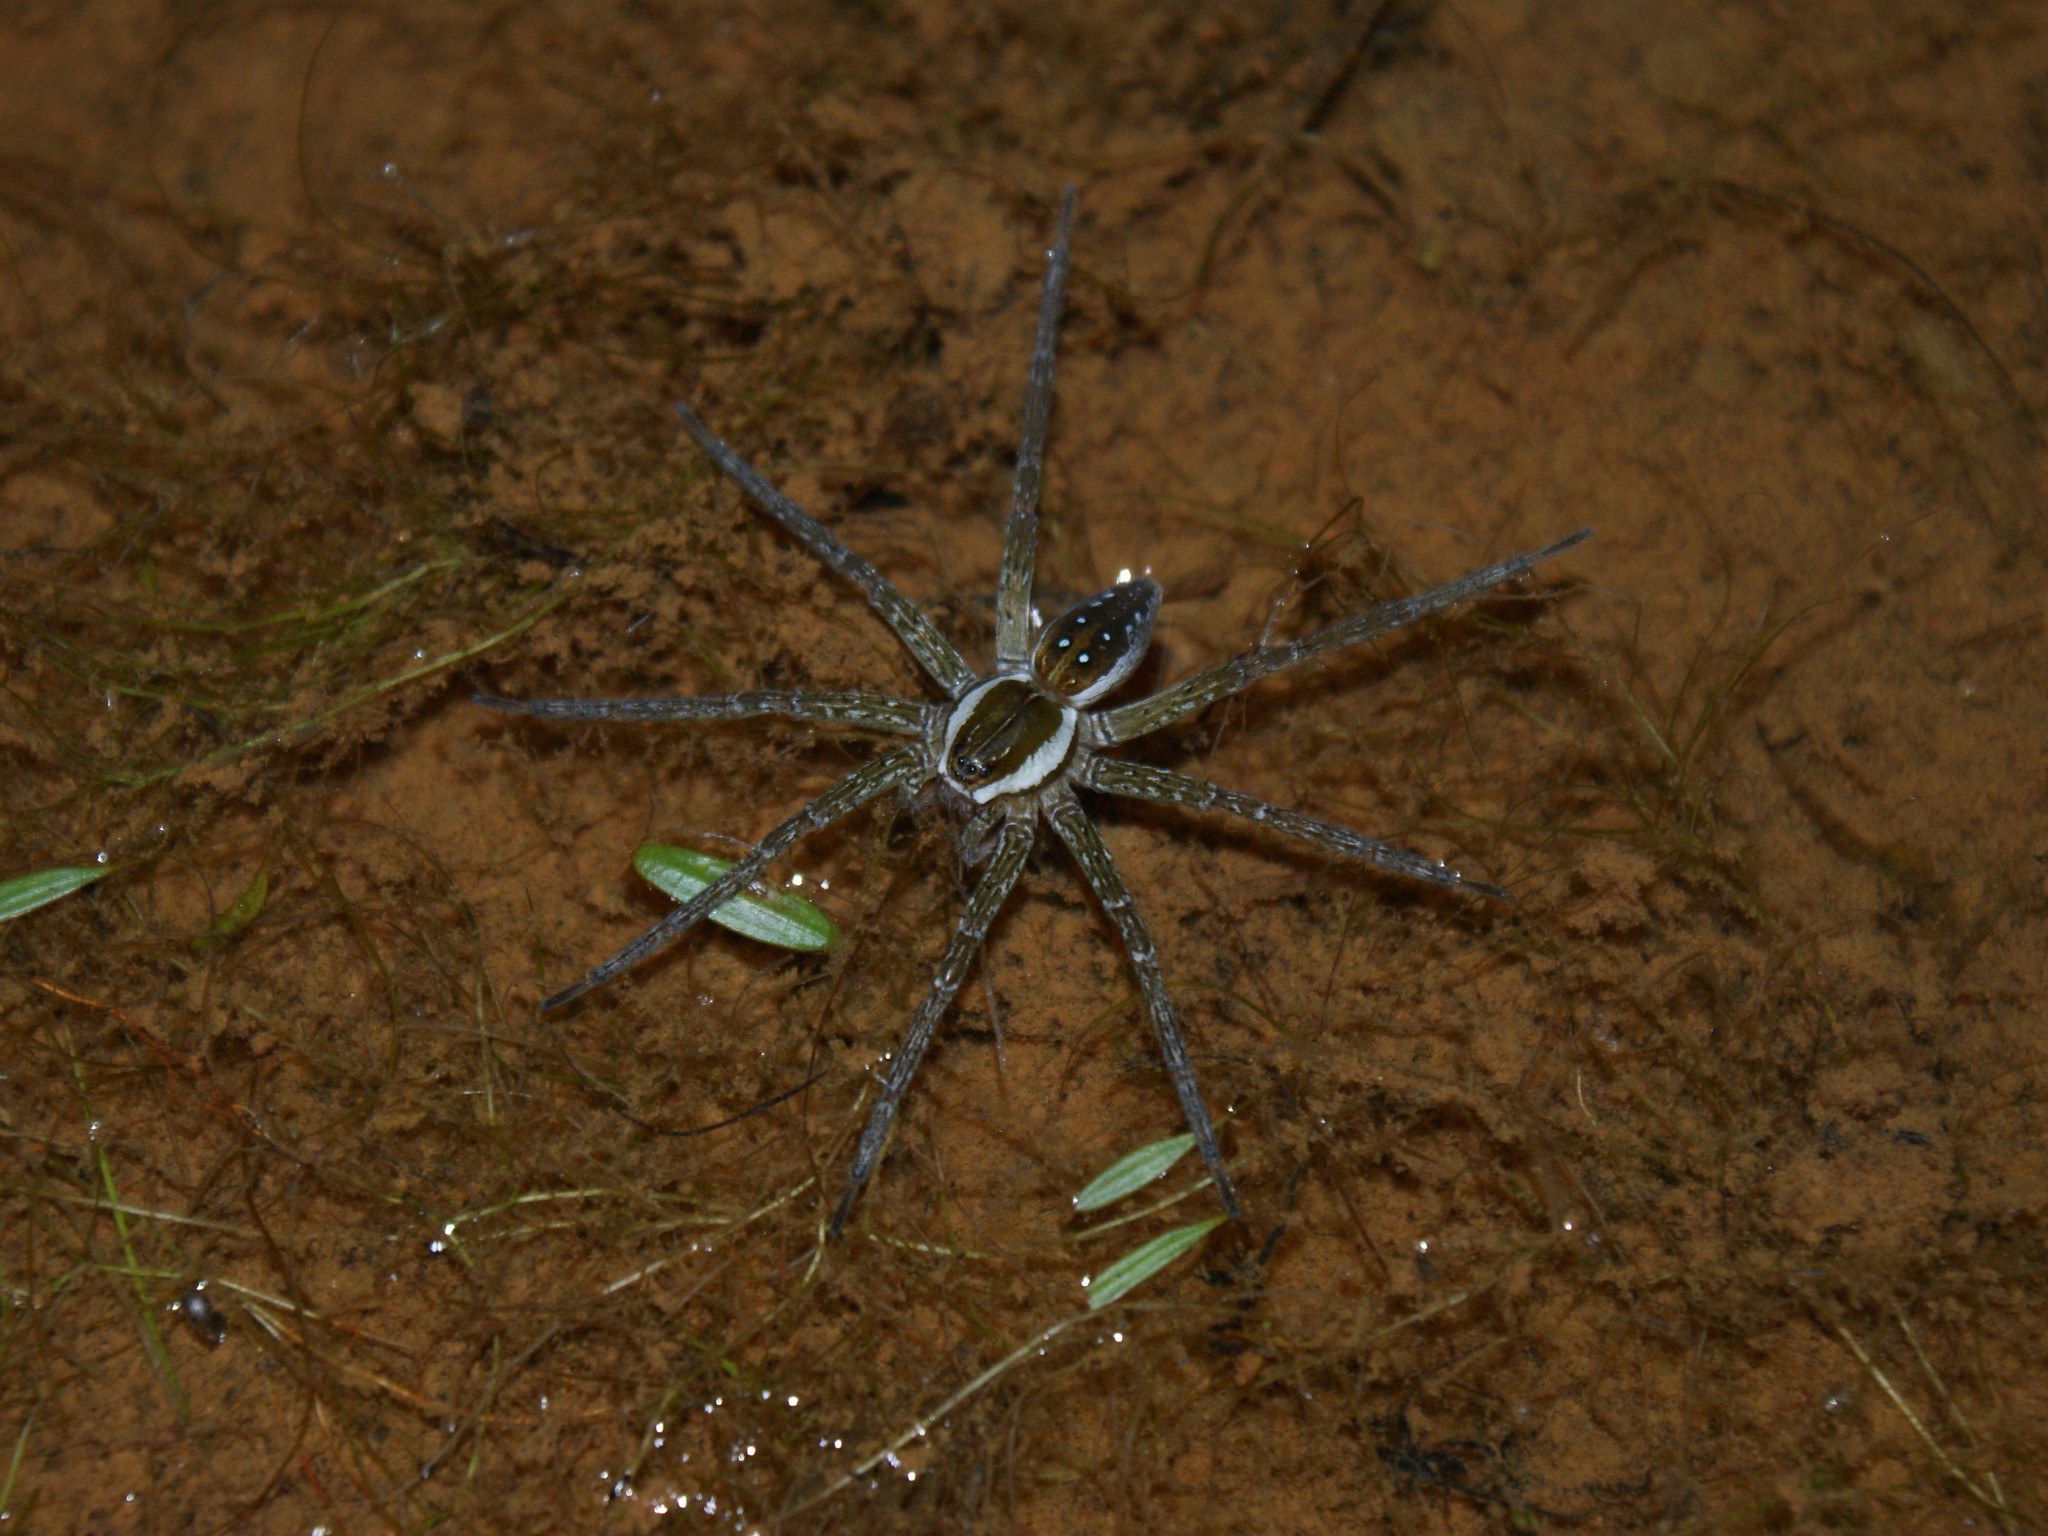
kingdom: Animalia
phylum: Arthropoda
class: Arachnida
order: Araneae
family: Pisauridae
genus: Dolomedes
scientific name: Dolomedes triton
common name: Six-spotted fishing spider
